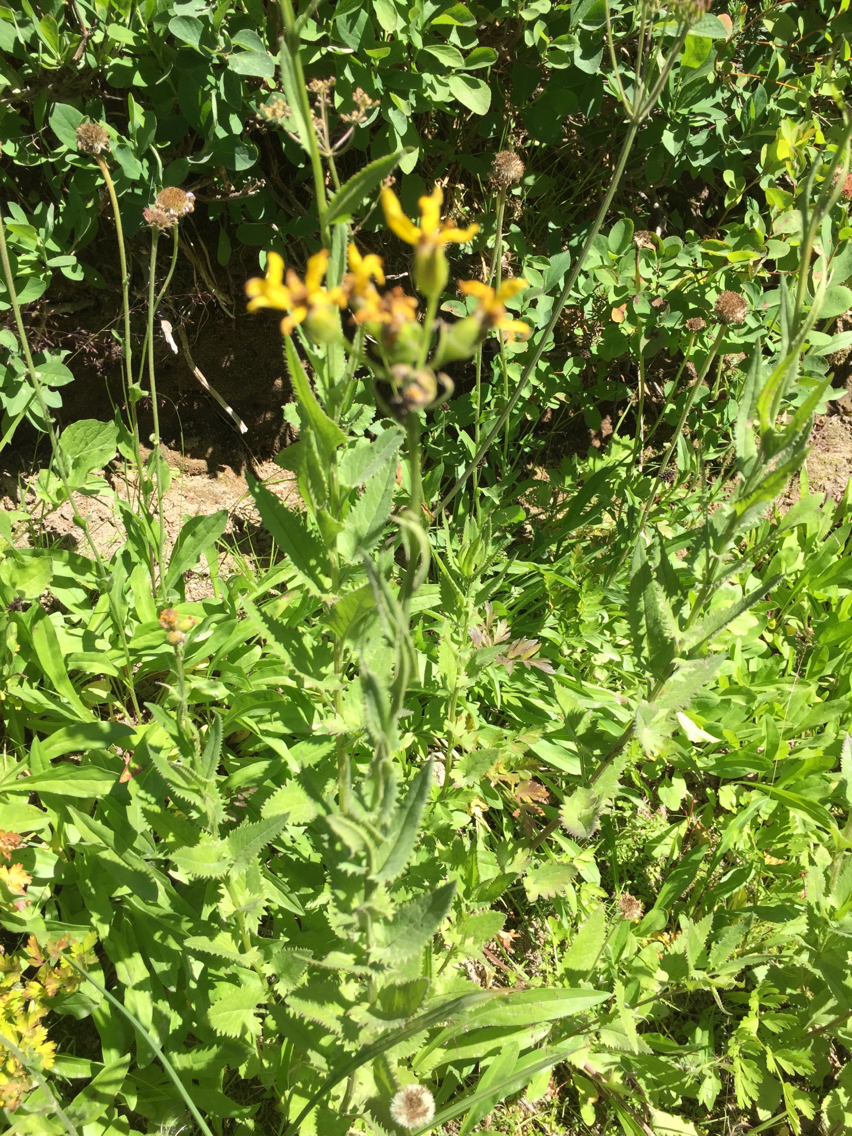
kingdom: Plantae
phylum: Tracheophyta
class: Magnoliopsida
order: Asterales
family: Asteraceae
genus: Senecio
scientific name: Senecio triangularis
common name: Arrowleaf butterweed
